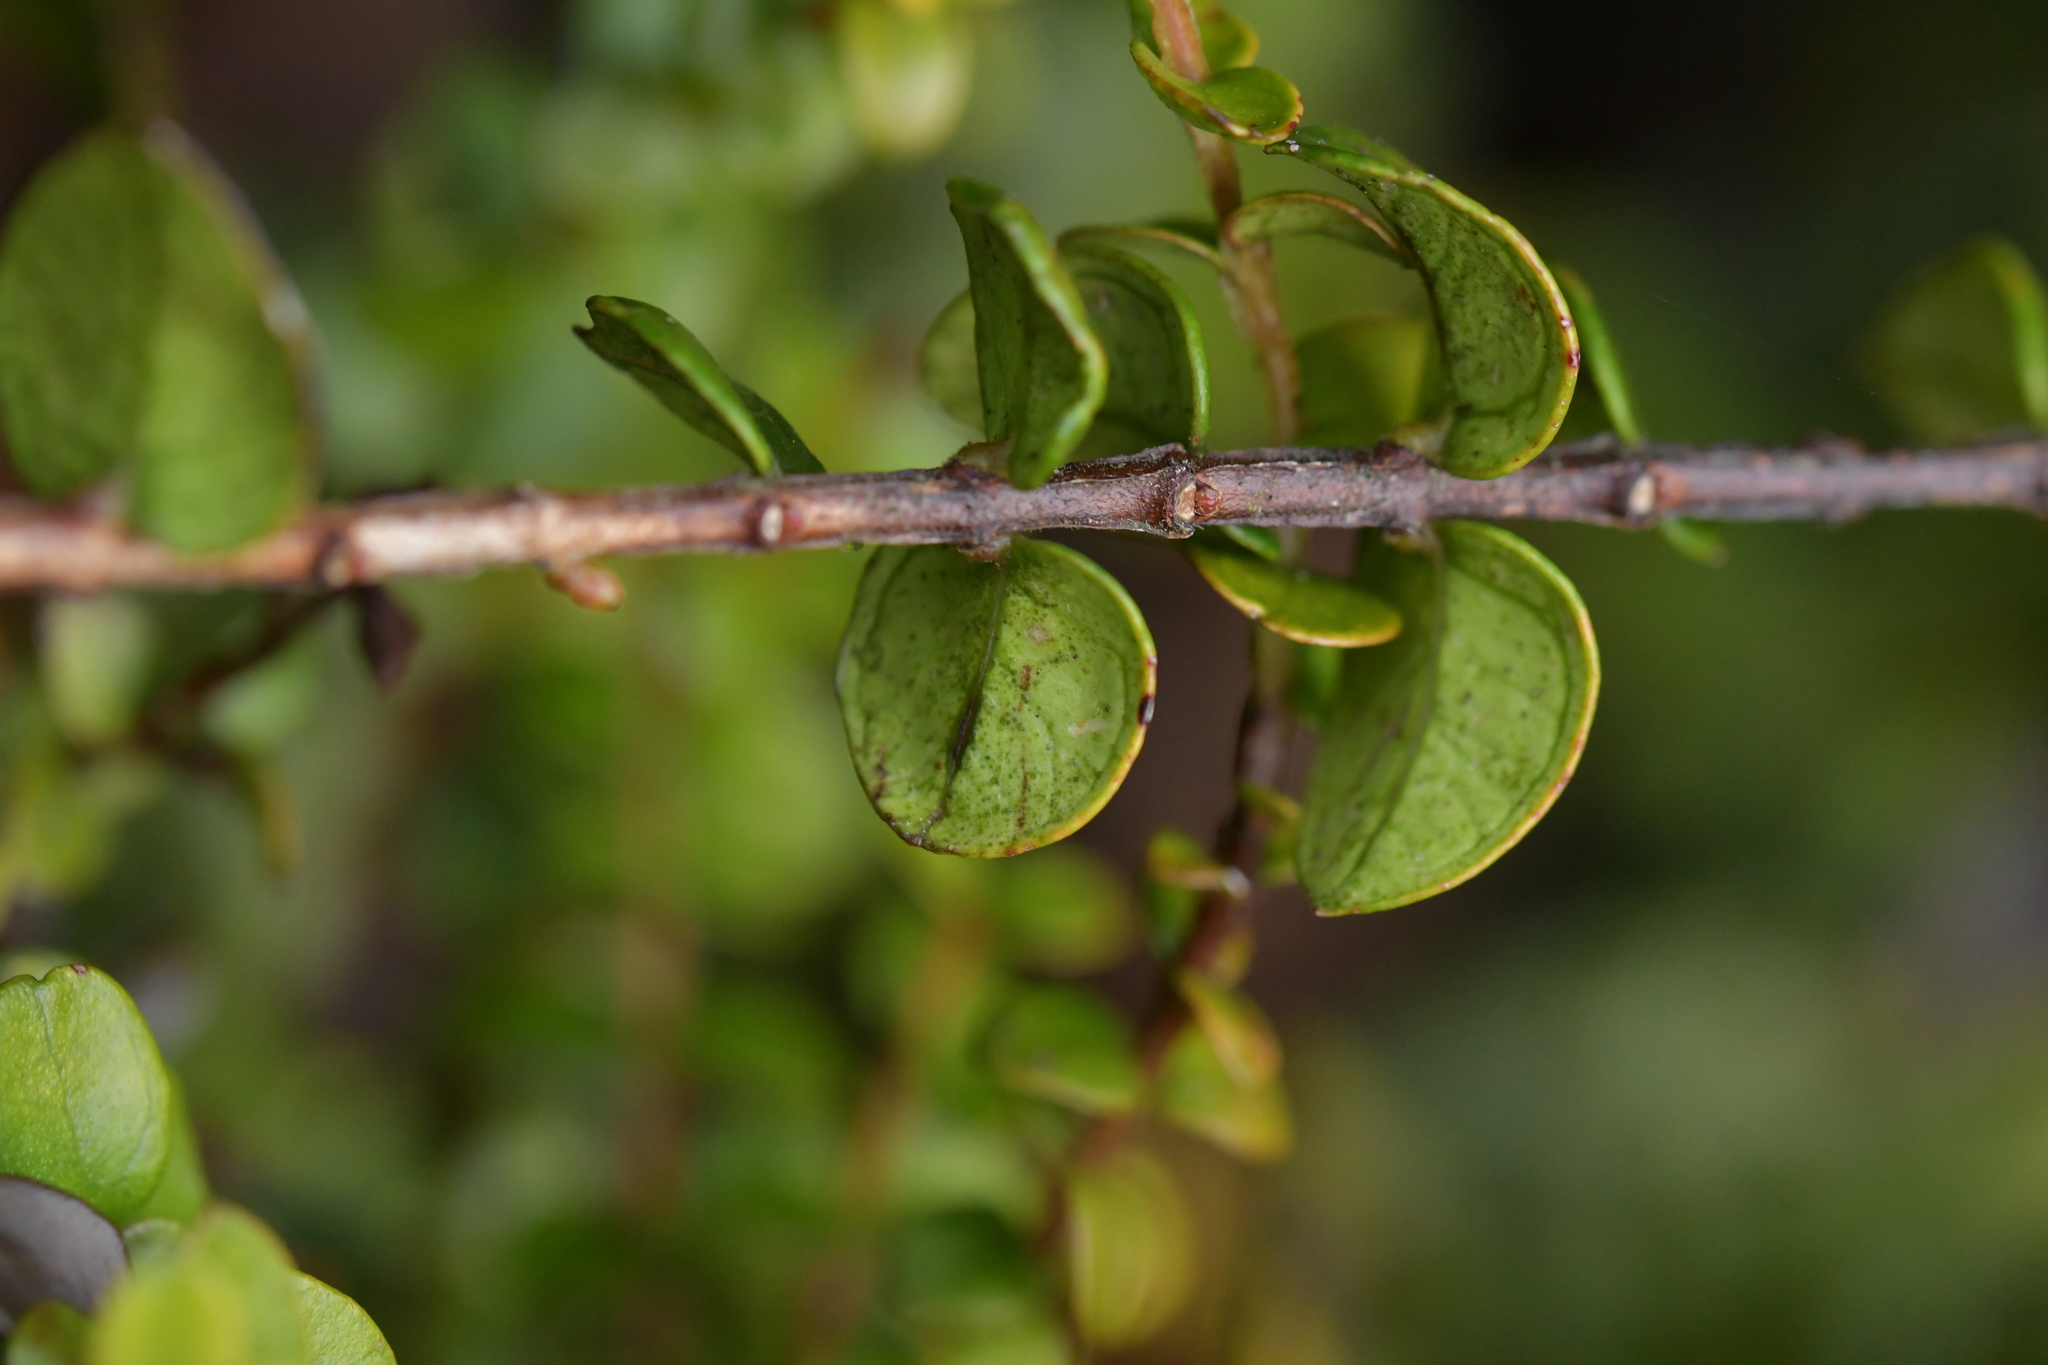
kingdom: Plantae
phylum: Tracheophyta
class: Magnoliopsida
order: Myrtales
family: Myrtaceae
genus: Metrosideros
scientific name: Metrosideros perforata
